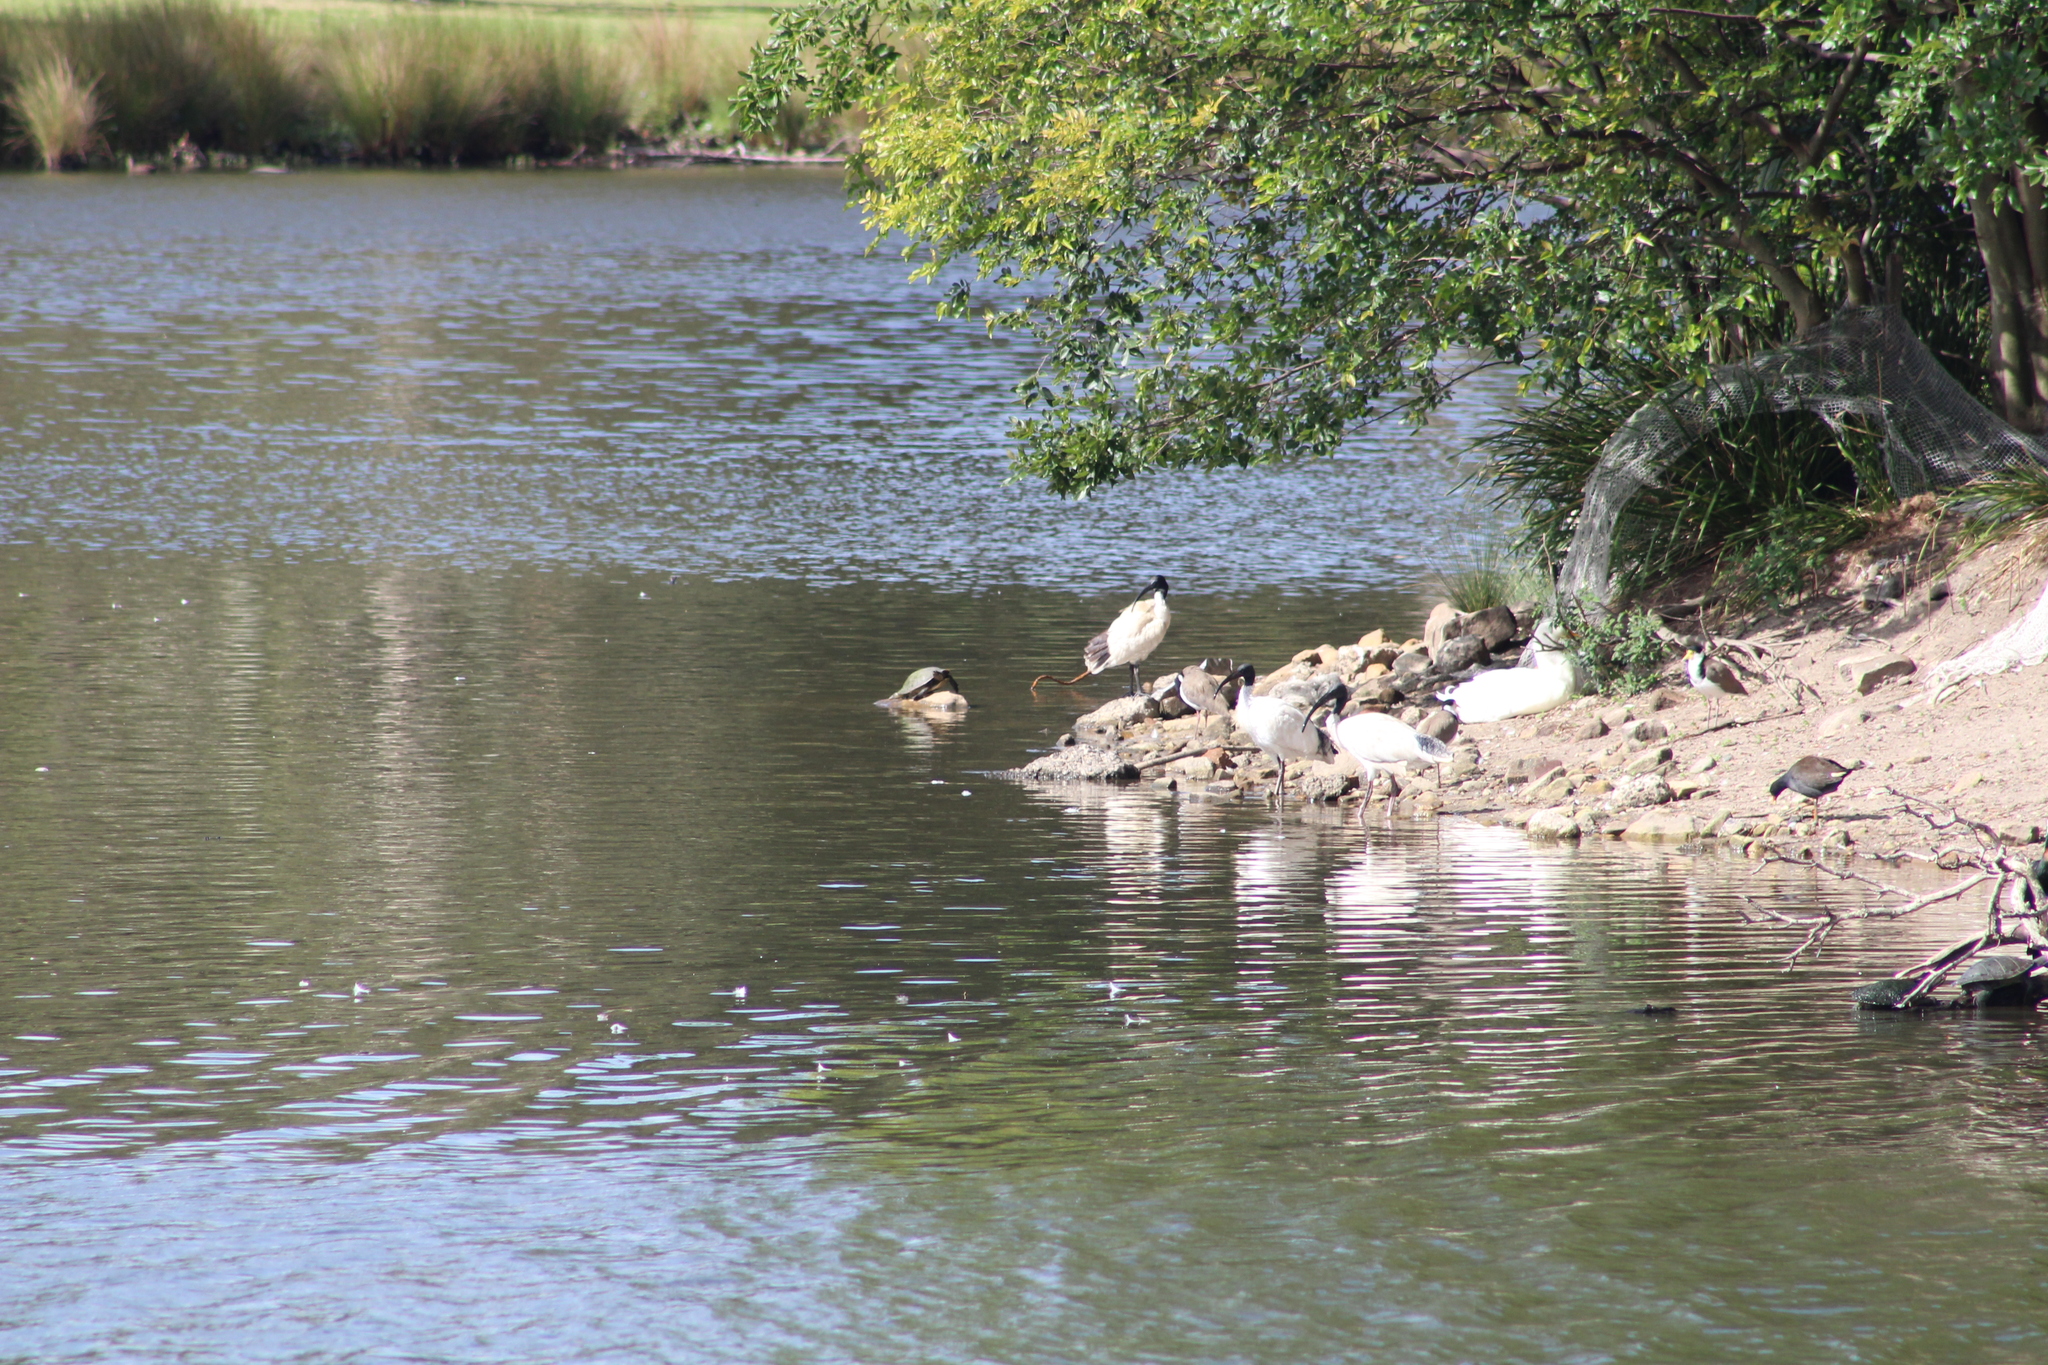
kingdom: Animalia
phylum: Chordata
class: Aves
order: Pelecaniformes
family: Threskiornithidae
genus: Threskiornis
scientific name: Threskiornis molucca
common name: Australian white ibis
